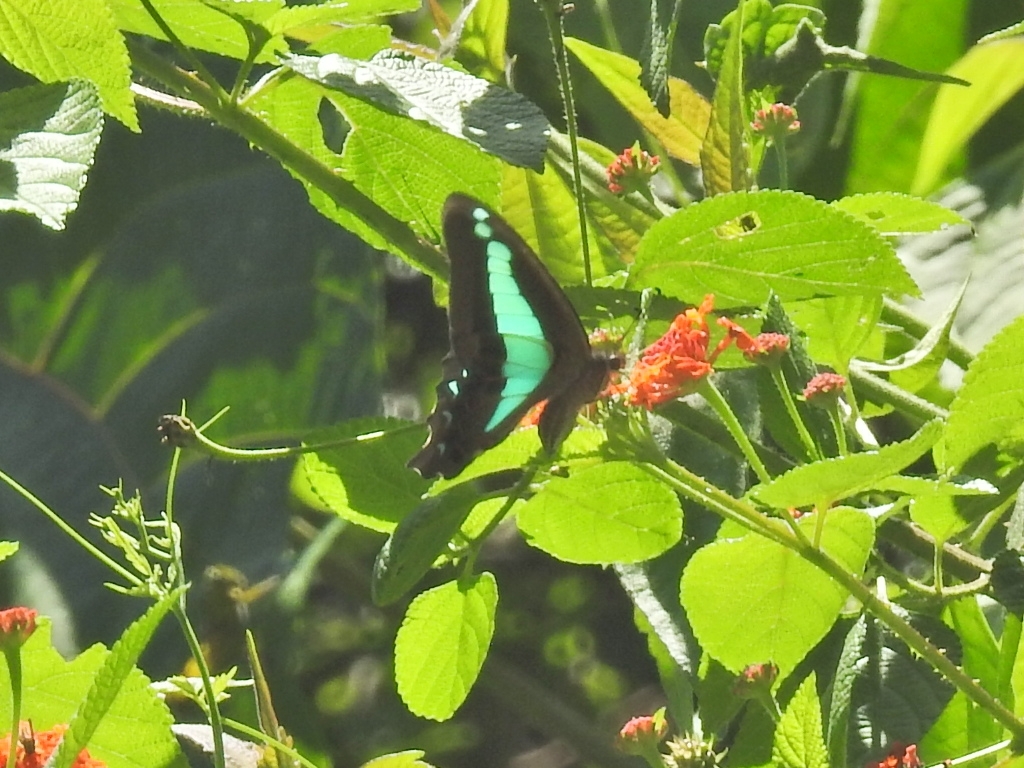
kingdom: Animalia
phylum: Arthropoda
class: Insecta
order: Lepidoptera
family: Papilionidae
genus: Graphium
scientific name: Graphium
